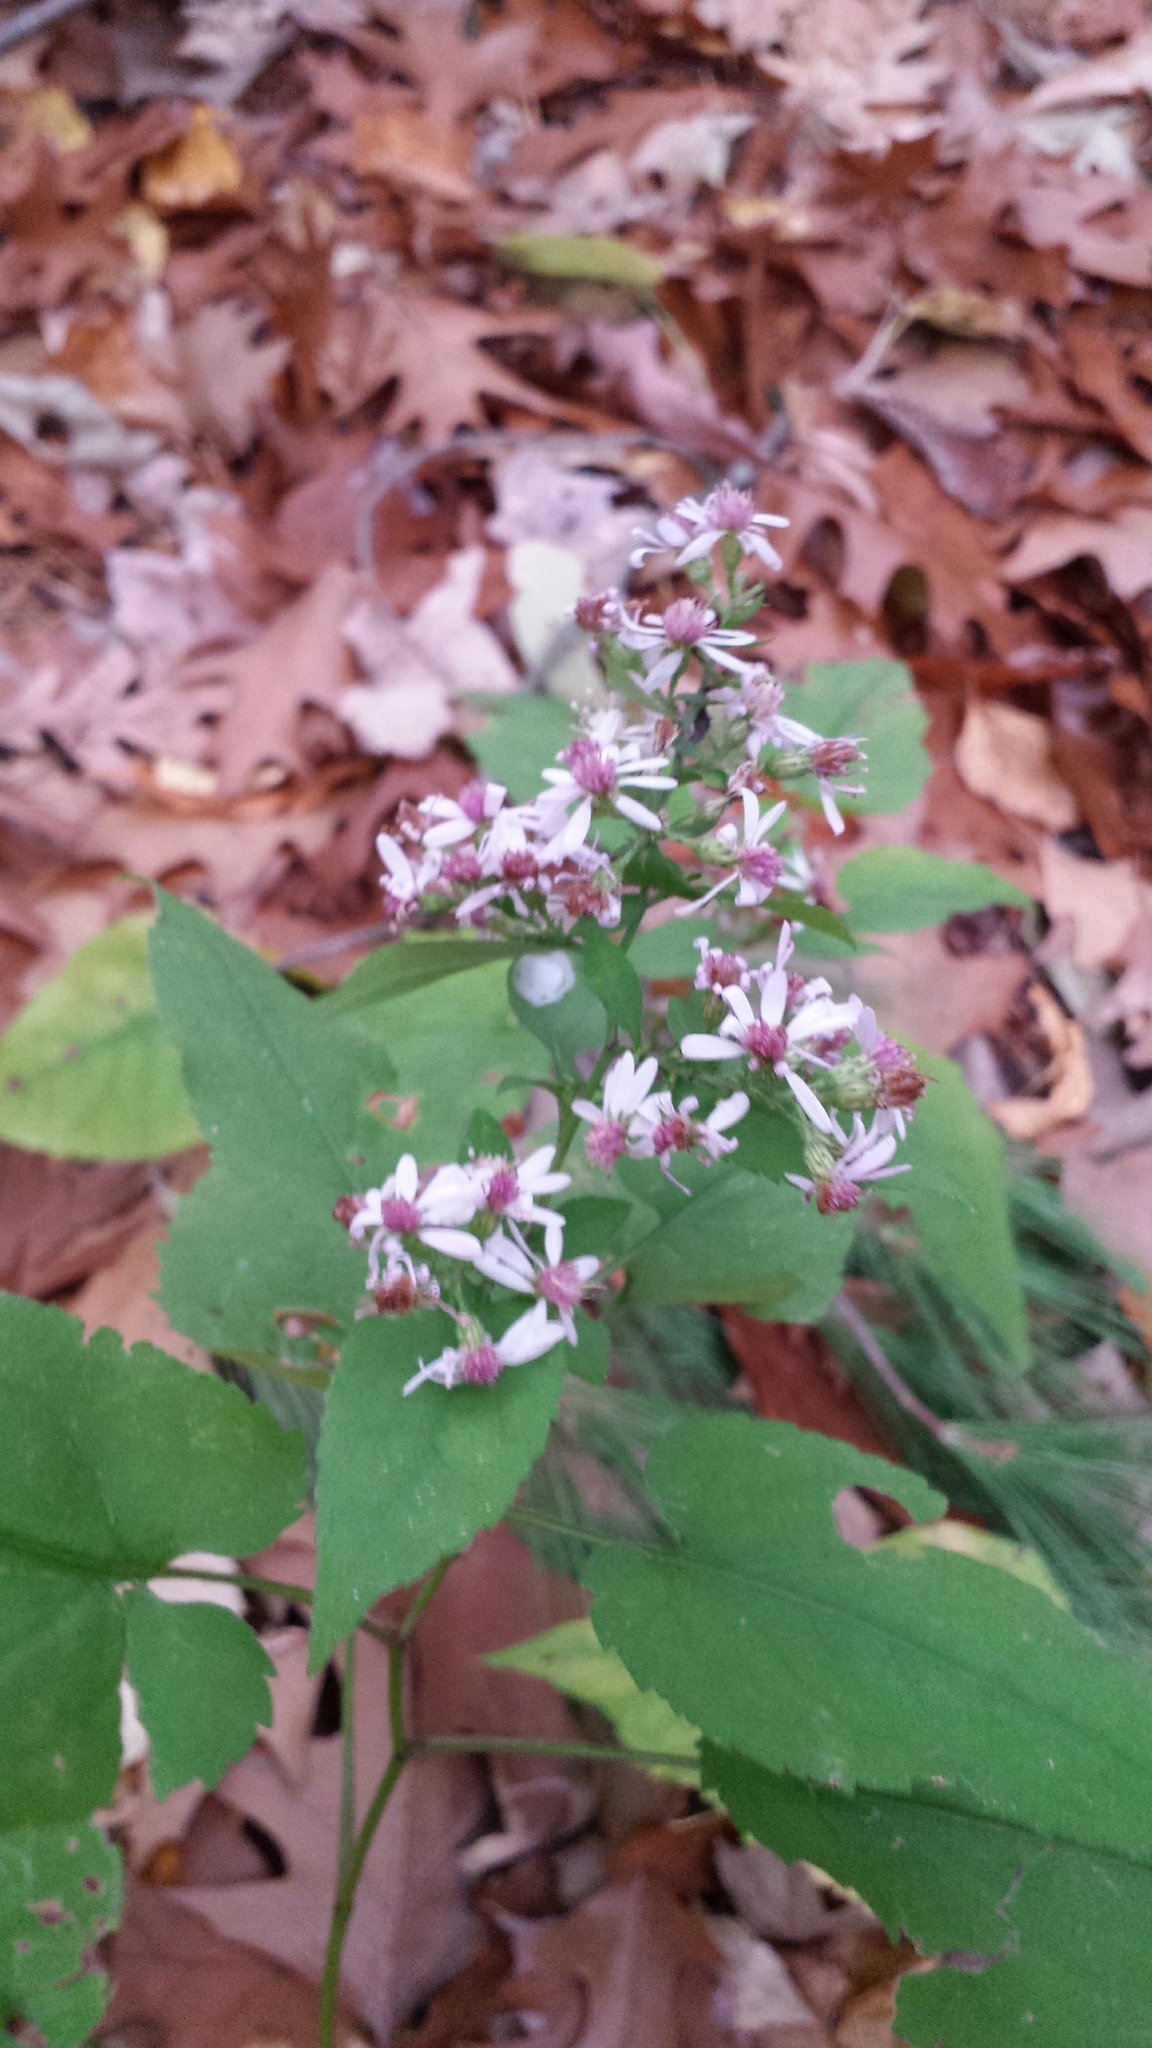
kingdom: Plantae
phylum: Tracheophyta
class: Magnoliopsida
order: Asterales
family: Asteraceae
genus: Symphyotrichum
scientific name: Symphyotrichum cordifolium
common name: Beeweed
